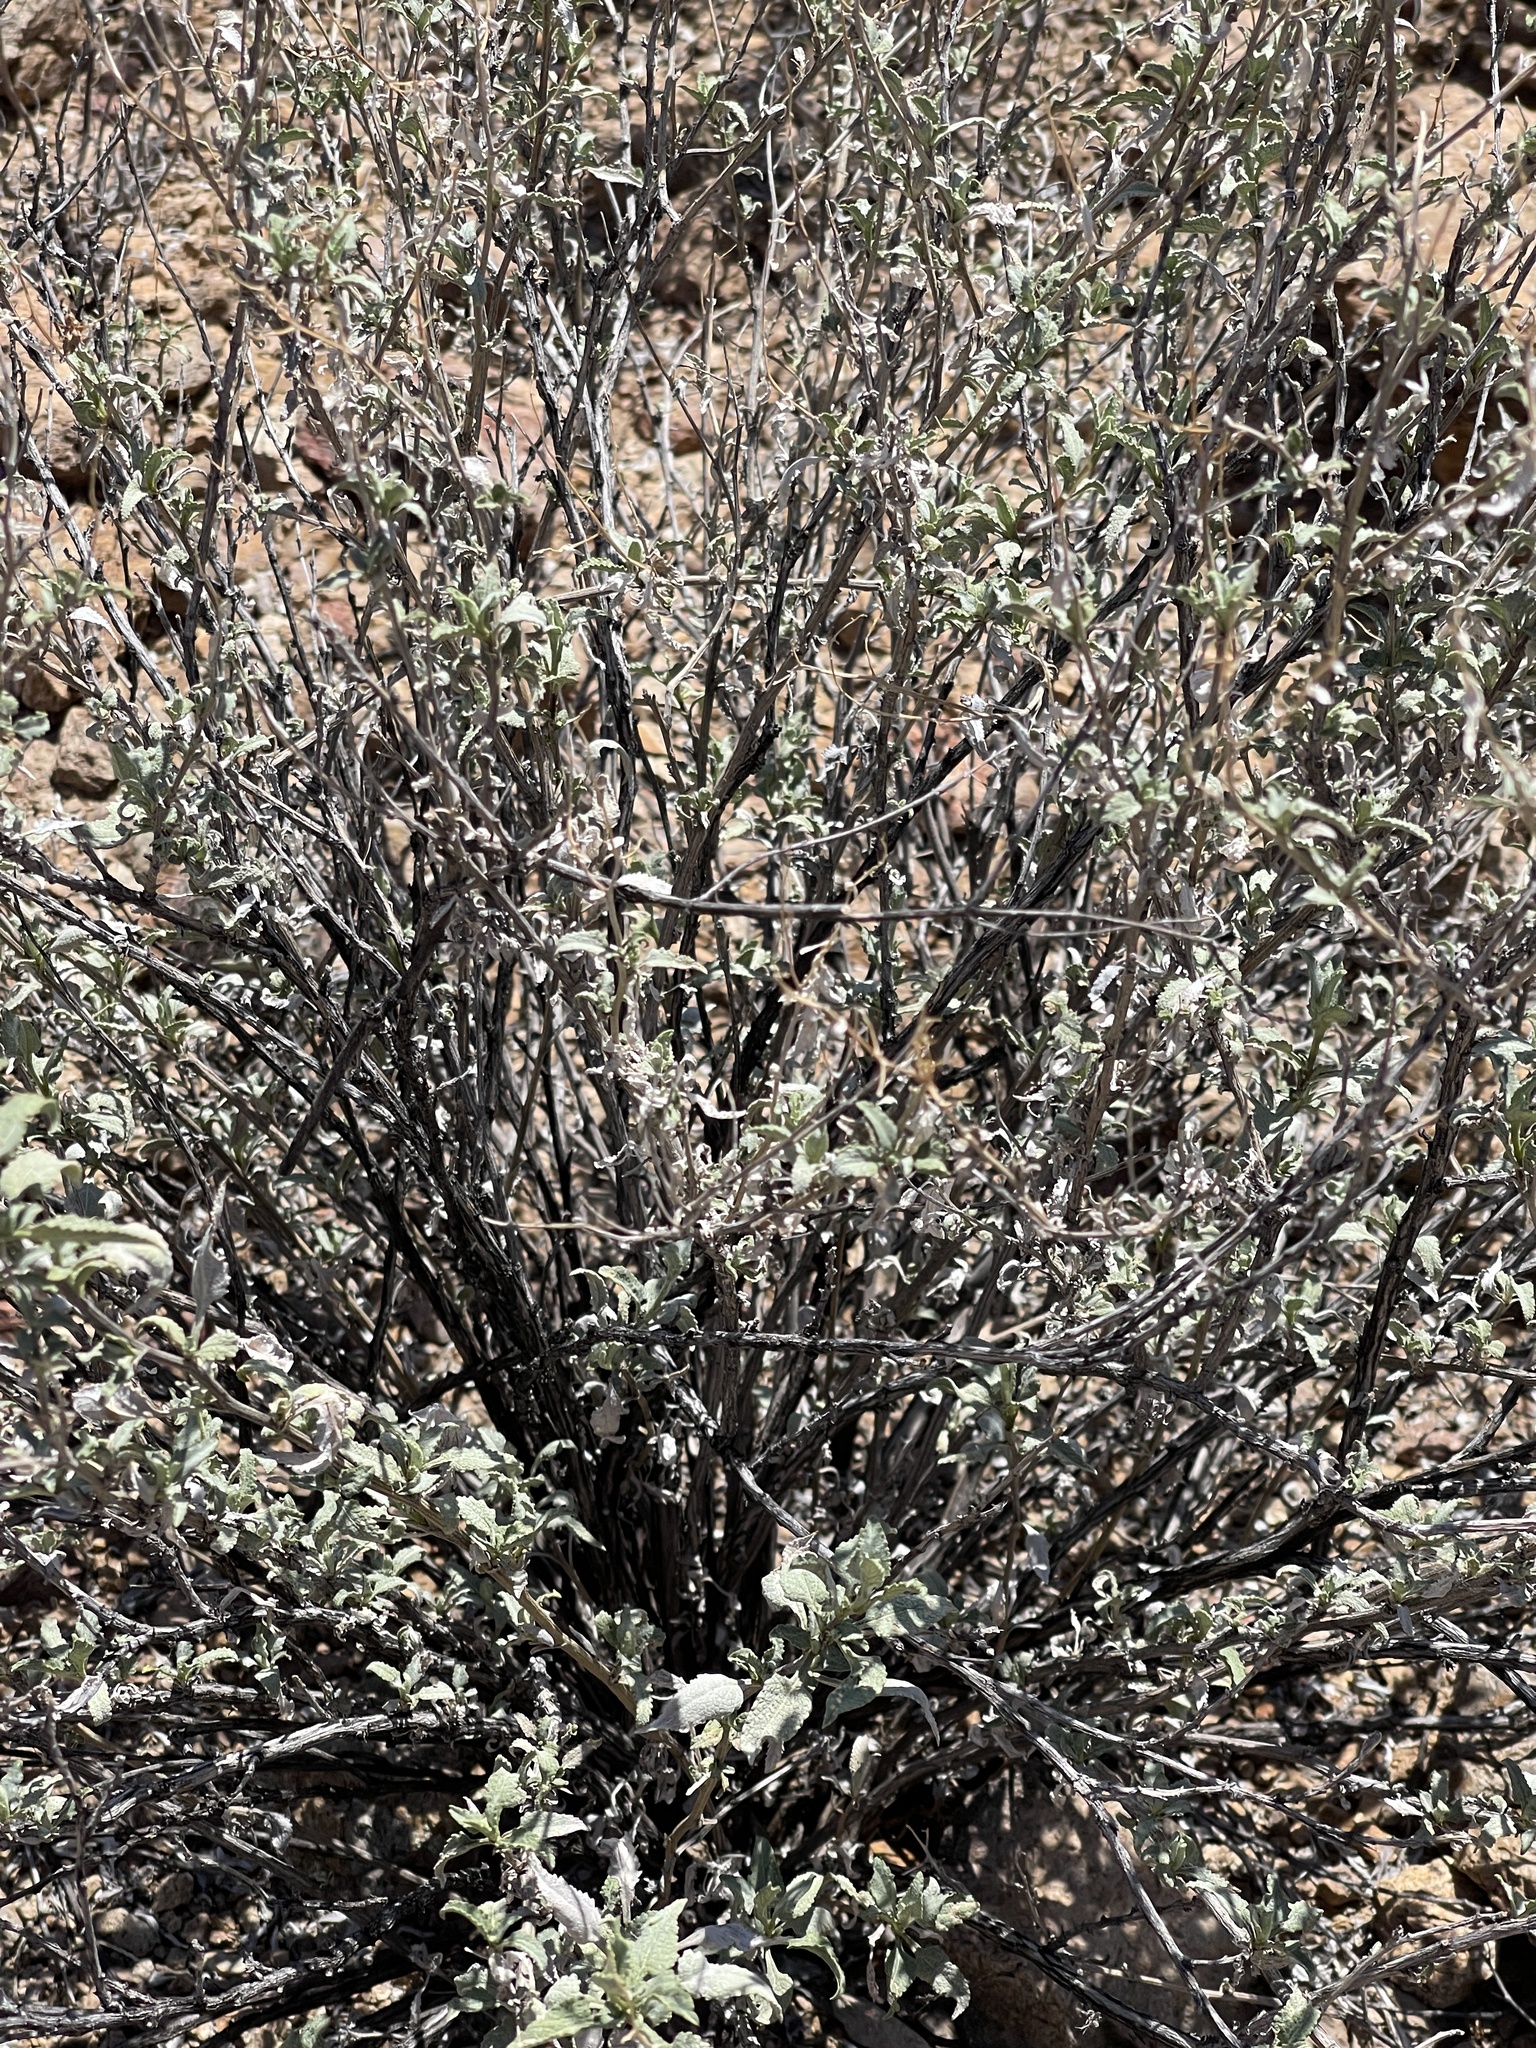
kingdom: Plantae
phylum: Tracheophyta
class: Magnoliopsida
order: Asterales
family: Asteraceae
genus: Ambrosia
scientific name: Ambrosia deltoidea
